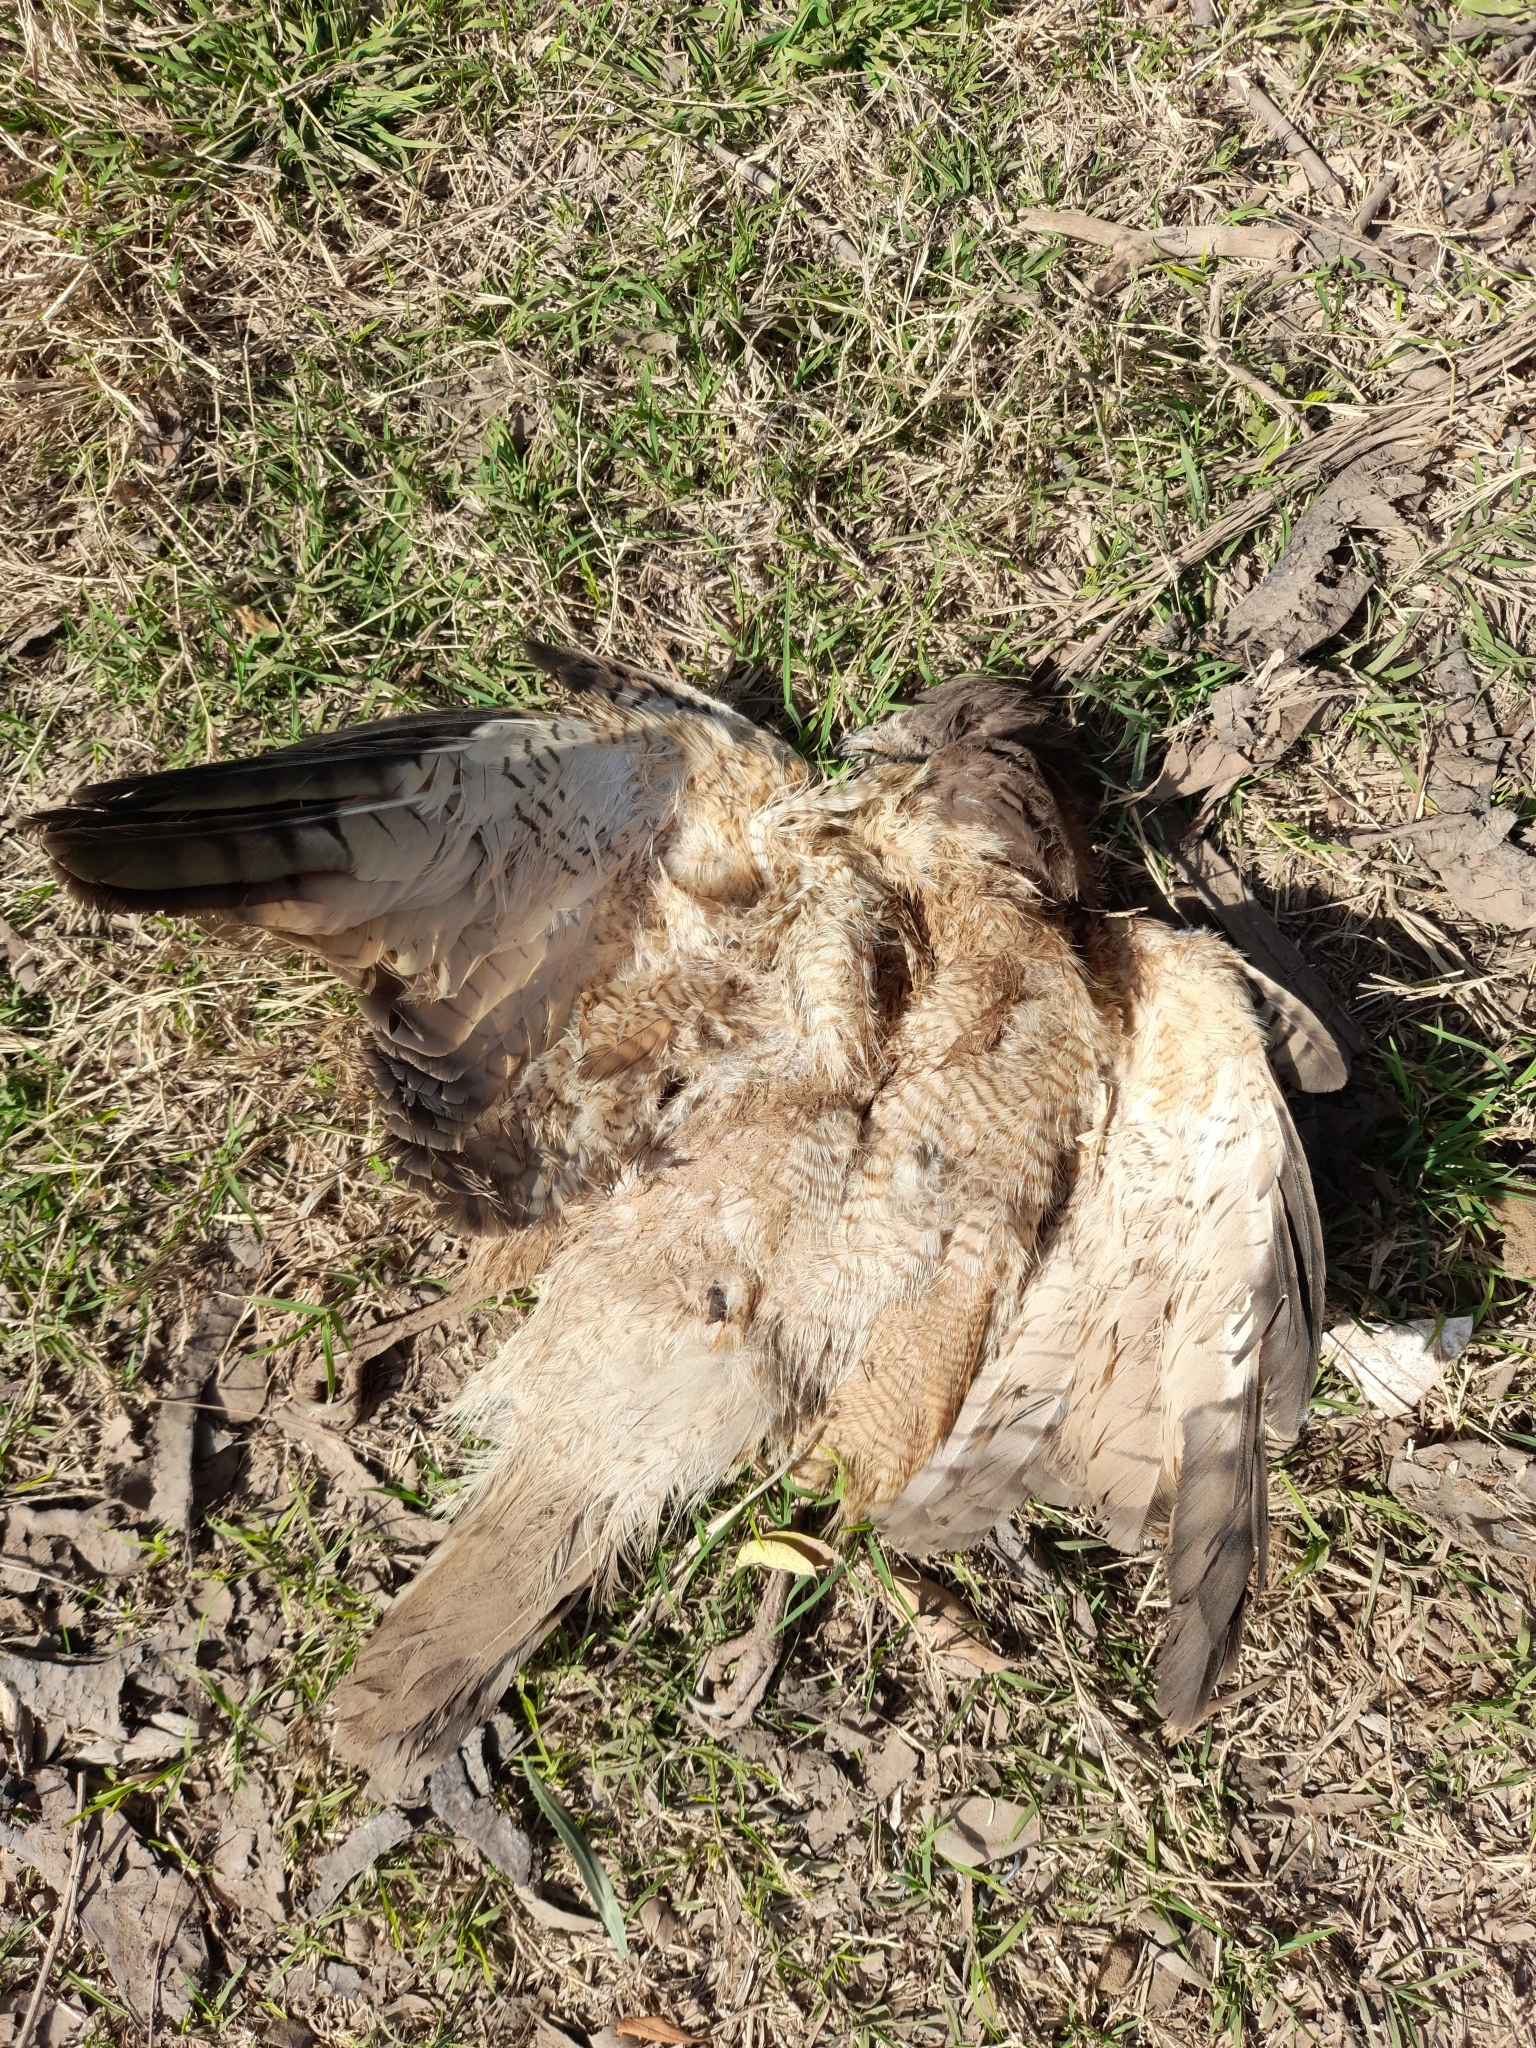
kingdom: Animalia
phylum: Chordata
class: Aves
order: Accipitriformes
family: Accipitridae
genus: Rupornis
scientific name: Rupornis magnirostris
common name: Roadside hawk
